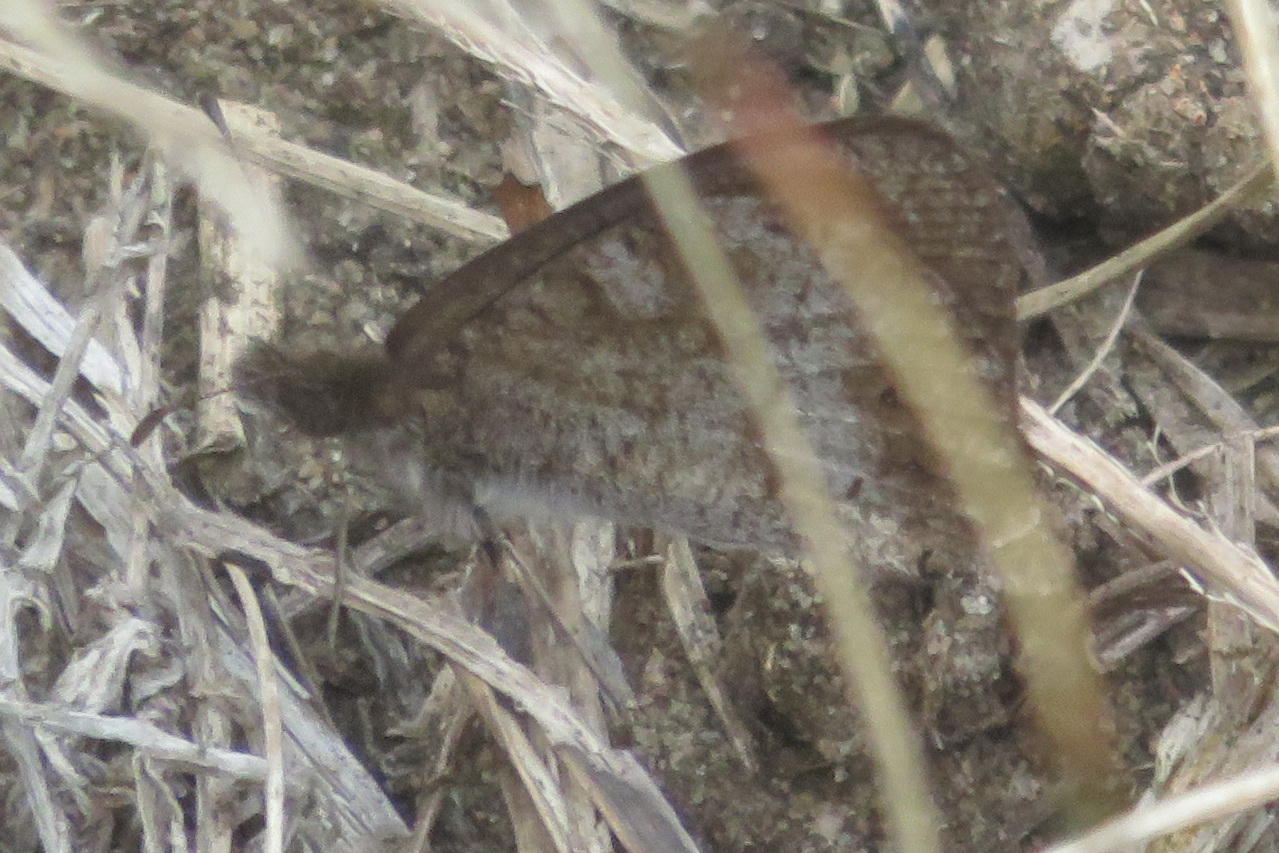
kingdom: Animalia
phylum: Arthropoda
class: Insecta
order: Lepidoptera
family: Nymphalidae
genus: Cassionympha
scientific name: Cassionympha cassius
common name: Rainforest brown
